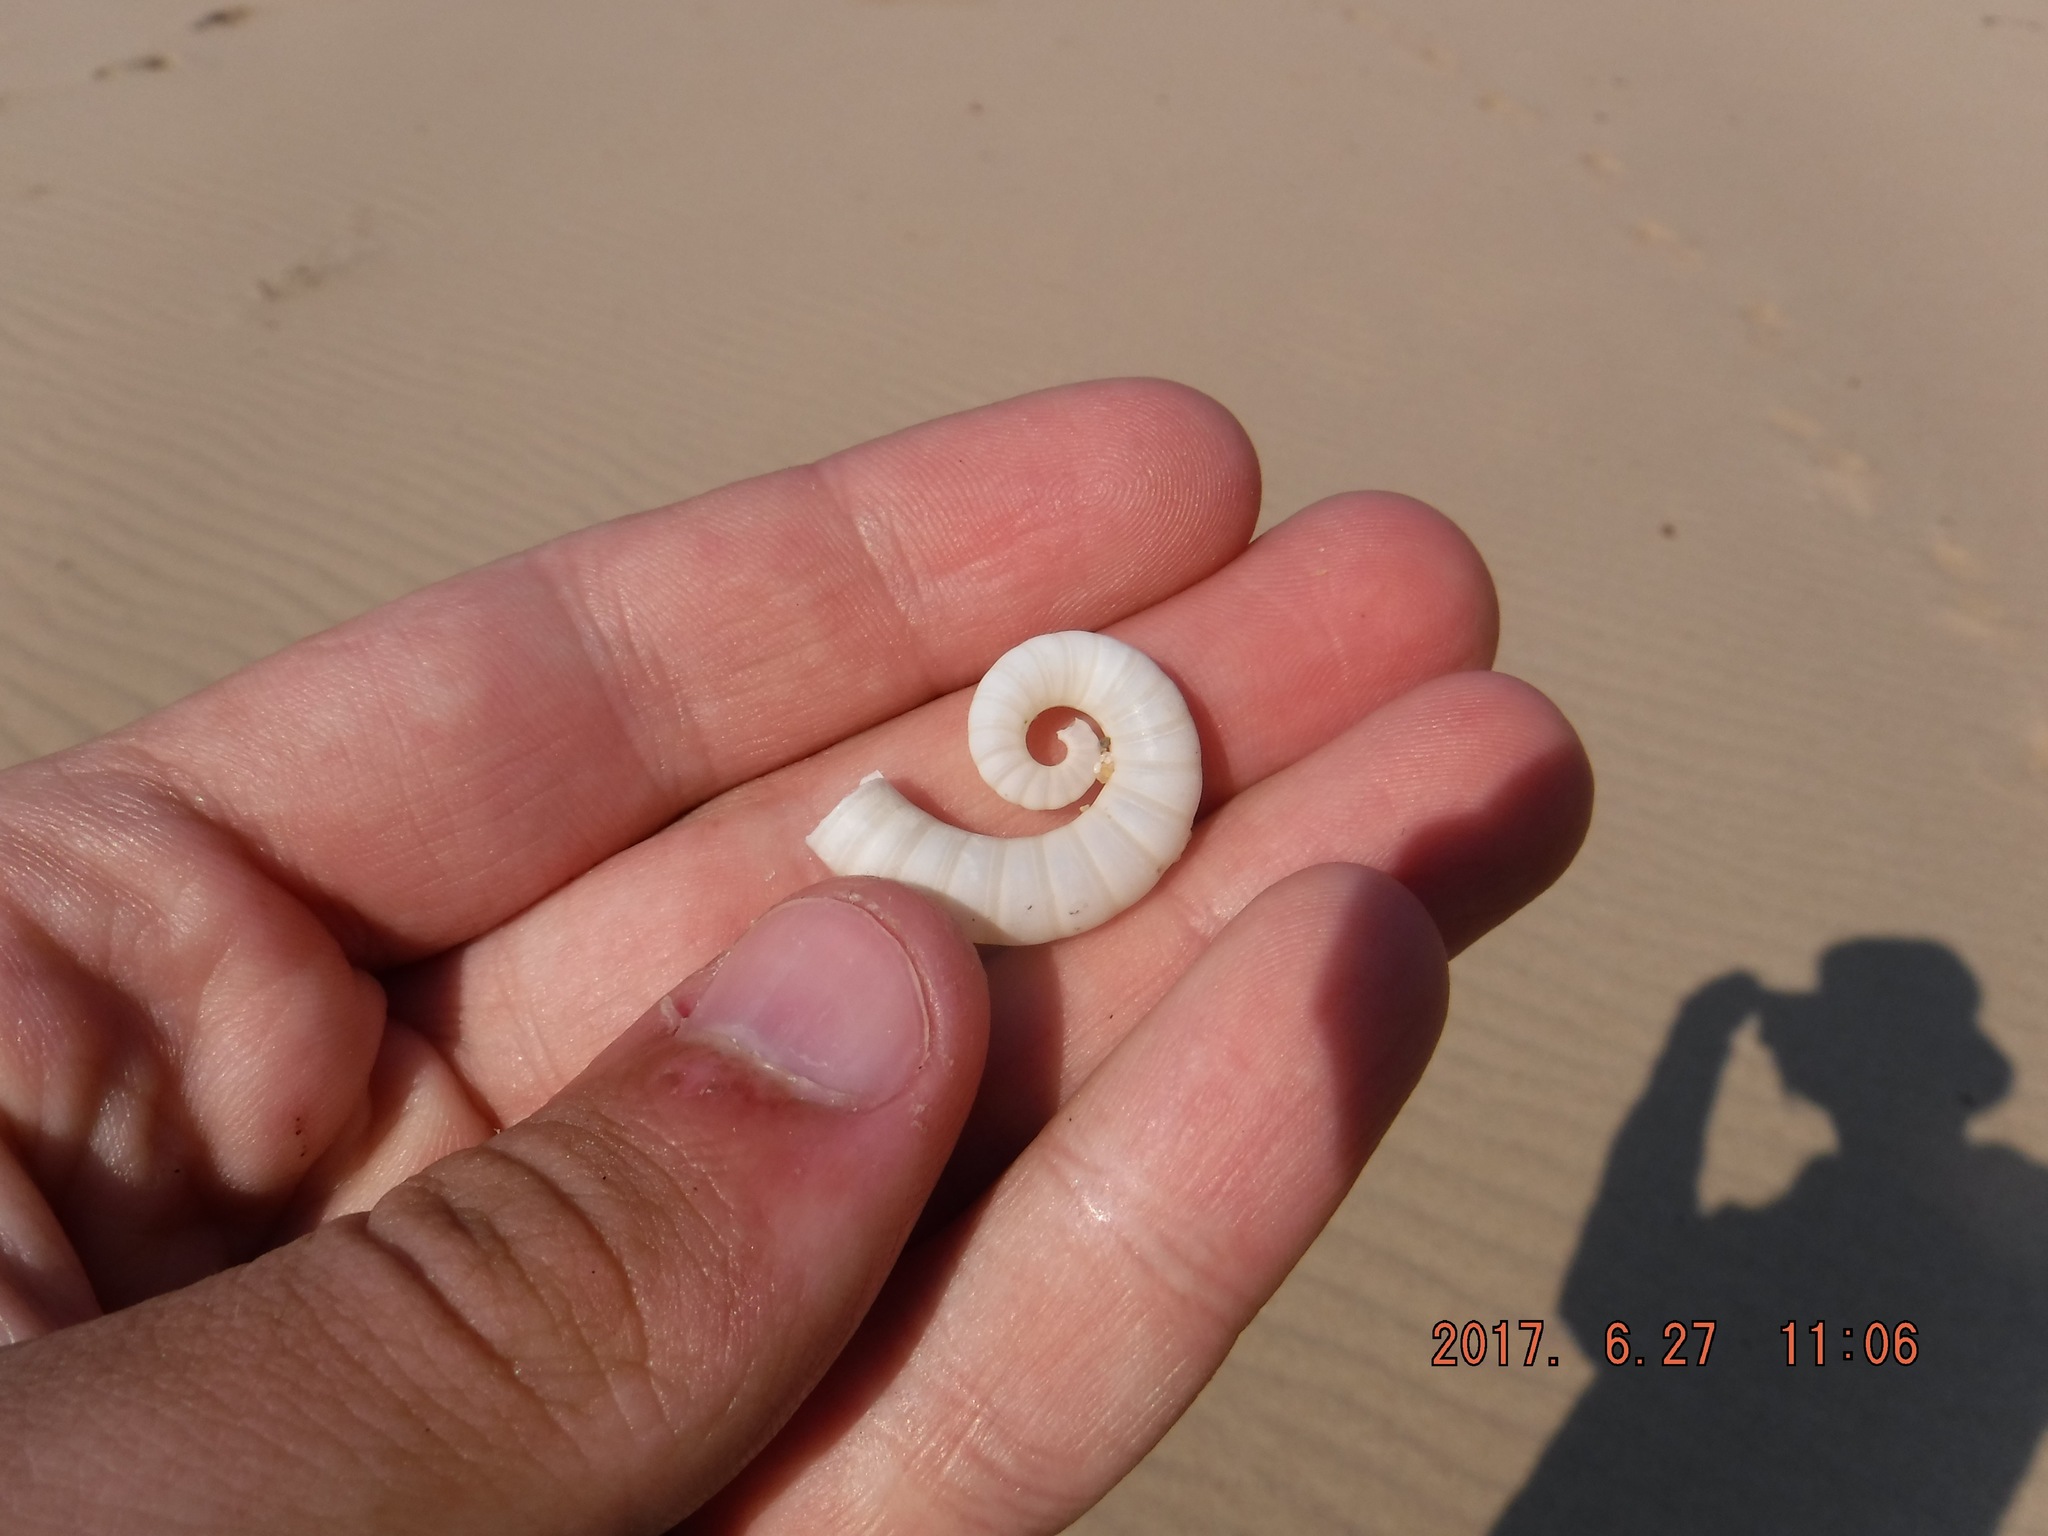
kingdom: Animalia
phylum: Mollusca
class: Cephalopoda
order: Spirulida
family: Spirulidae
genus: Spirula
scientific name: Spirula spirula
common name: Ram's horn squid
